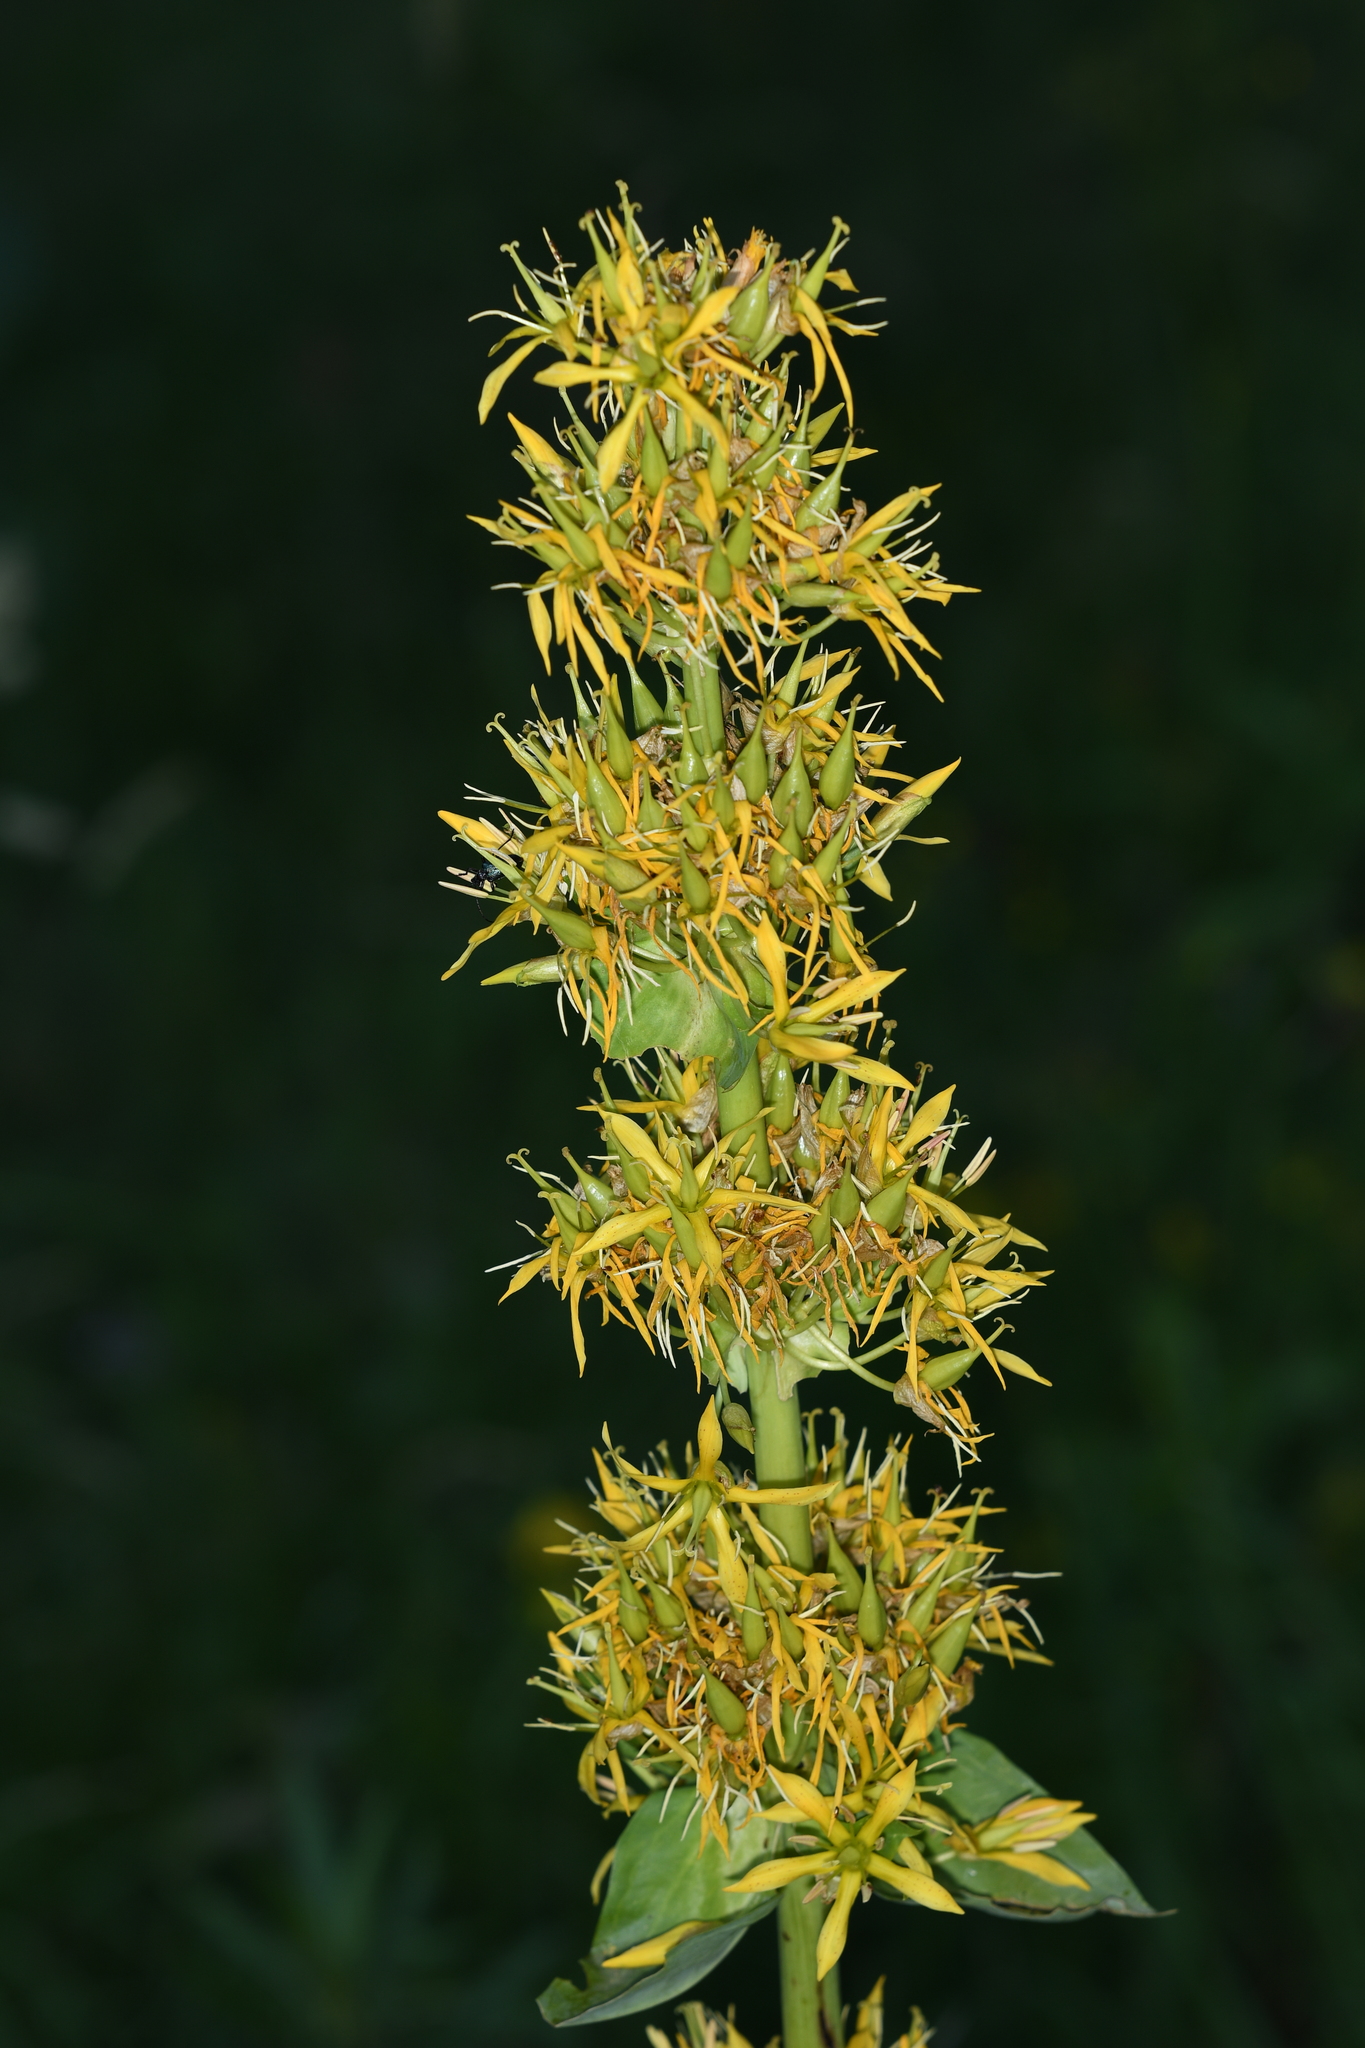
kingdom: Plantae
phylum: Tracheophyta
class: Magnoliopsida
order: Gentianales
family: Gentianaceae
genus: Gentiana
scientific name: Gentiana lutea
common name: Great yellow gentian
